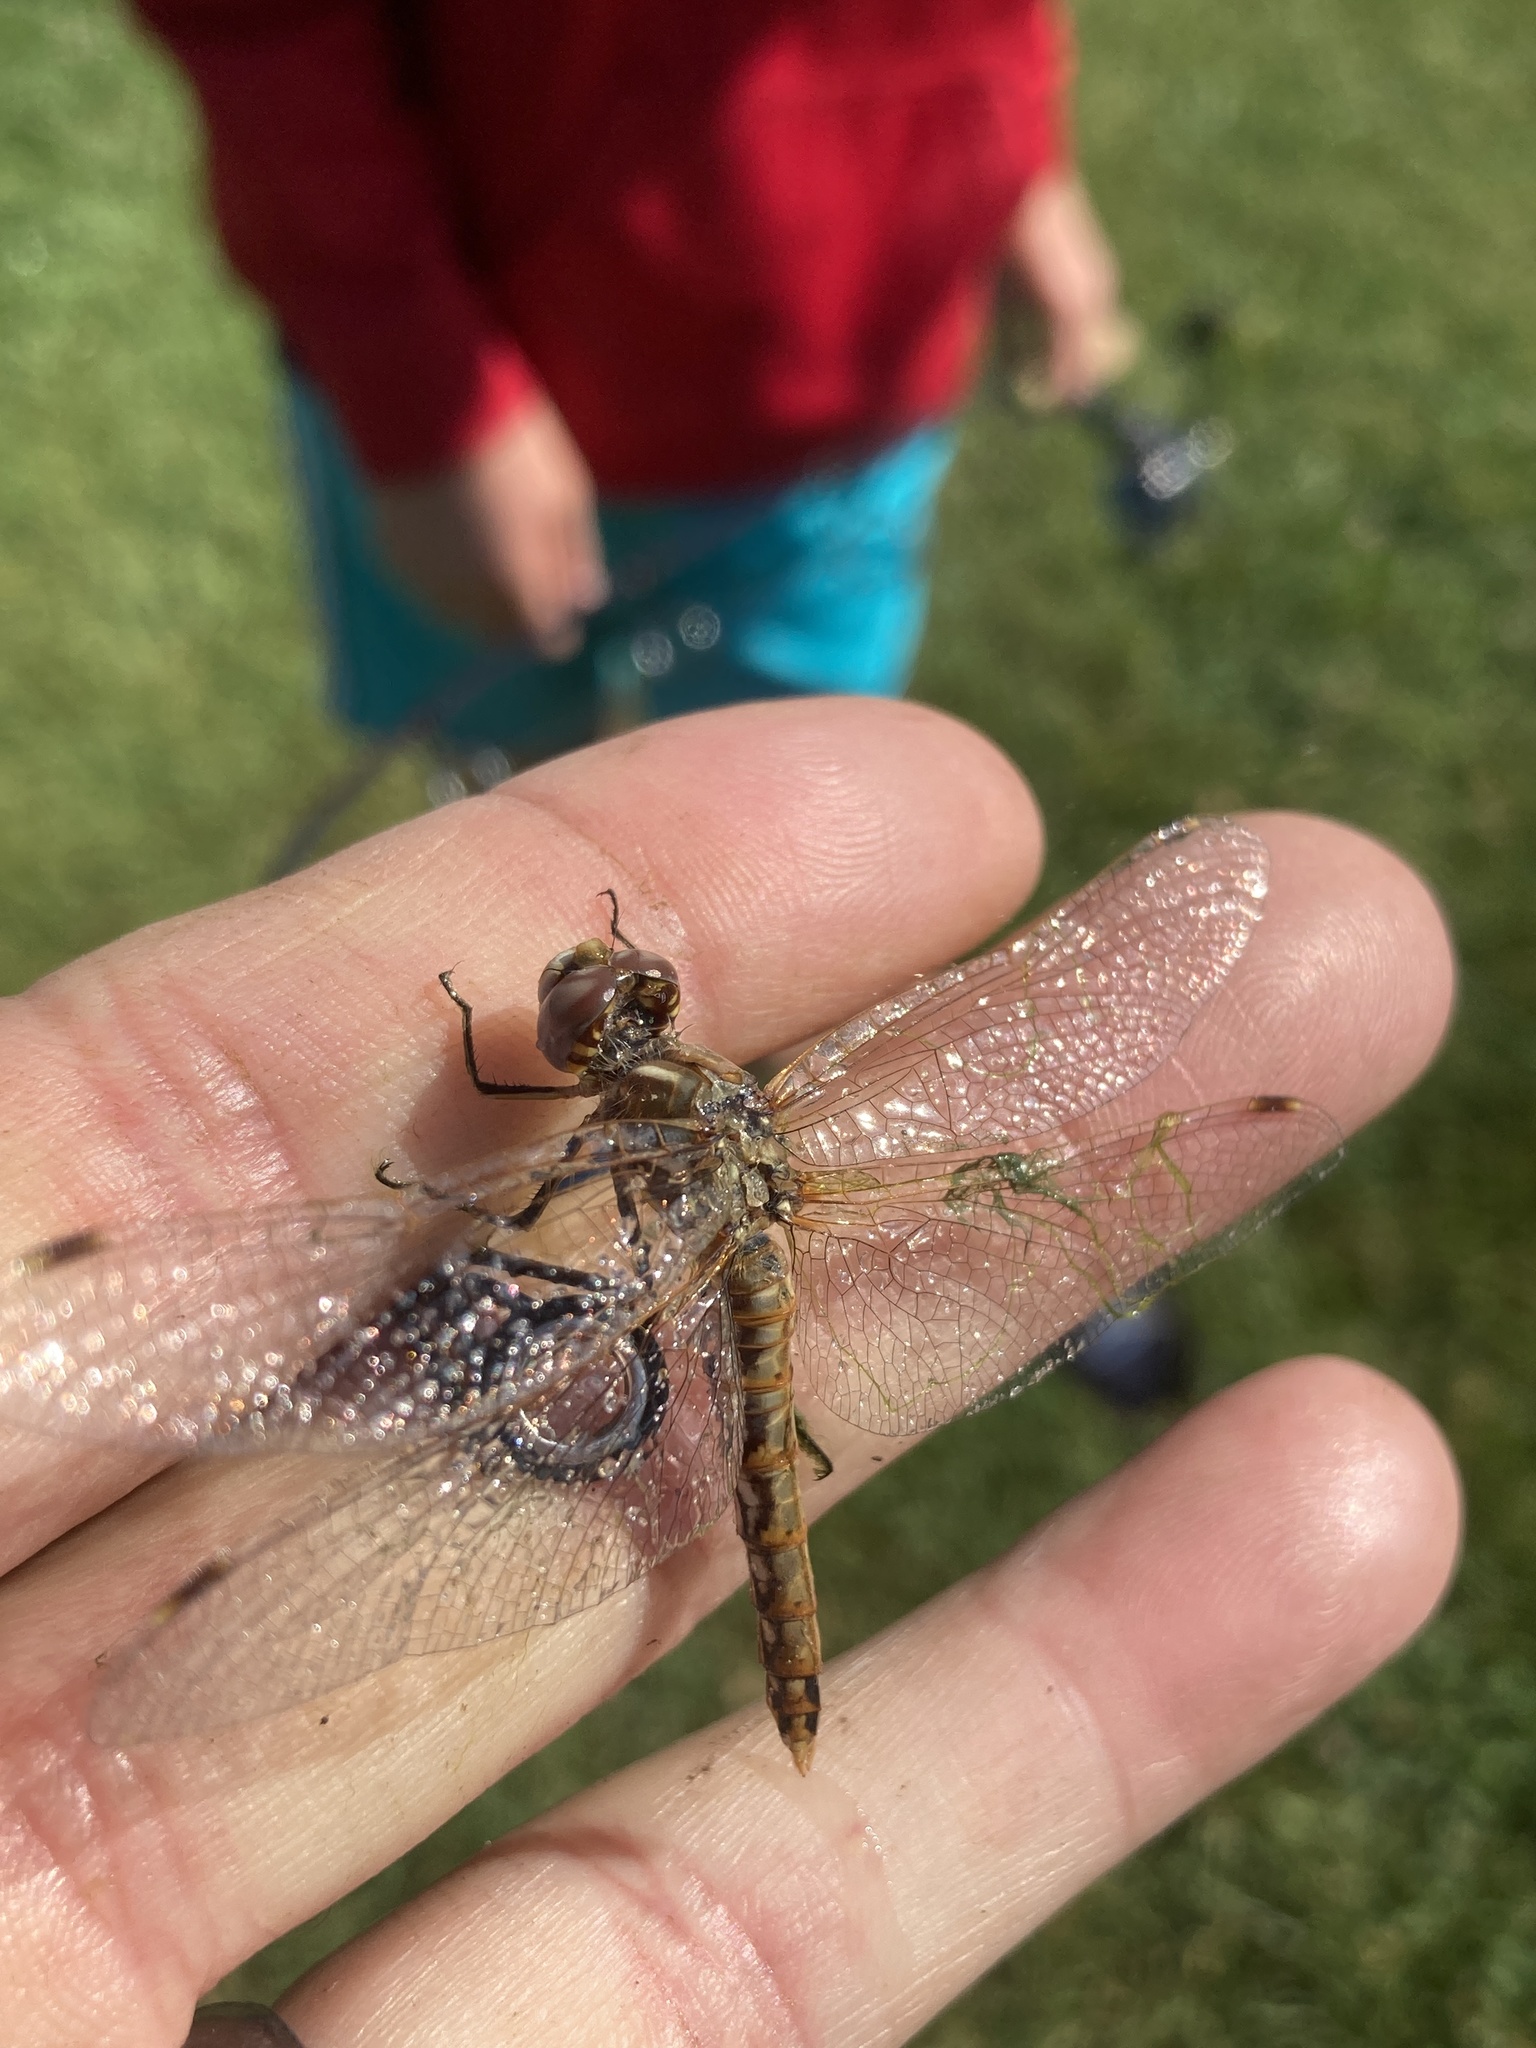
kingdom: Animalia
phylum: Arthropoda
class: Insecta
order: Odonata
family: Libellulidae
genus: Sympetrum
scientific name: Sympetrum corruptum
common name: Variegated meadowhawk
